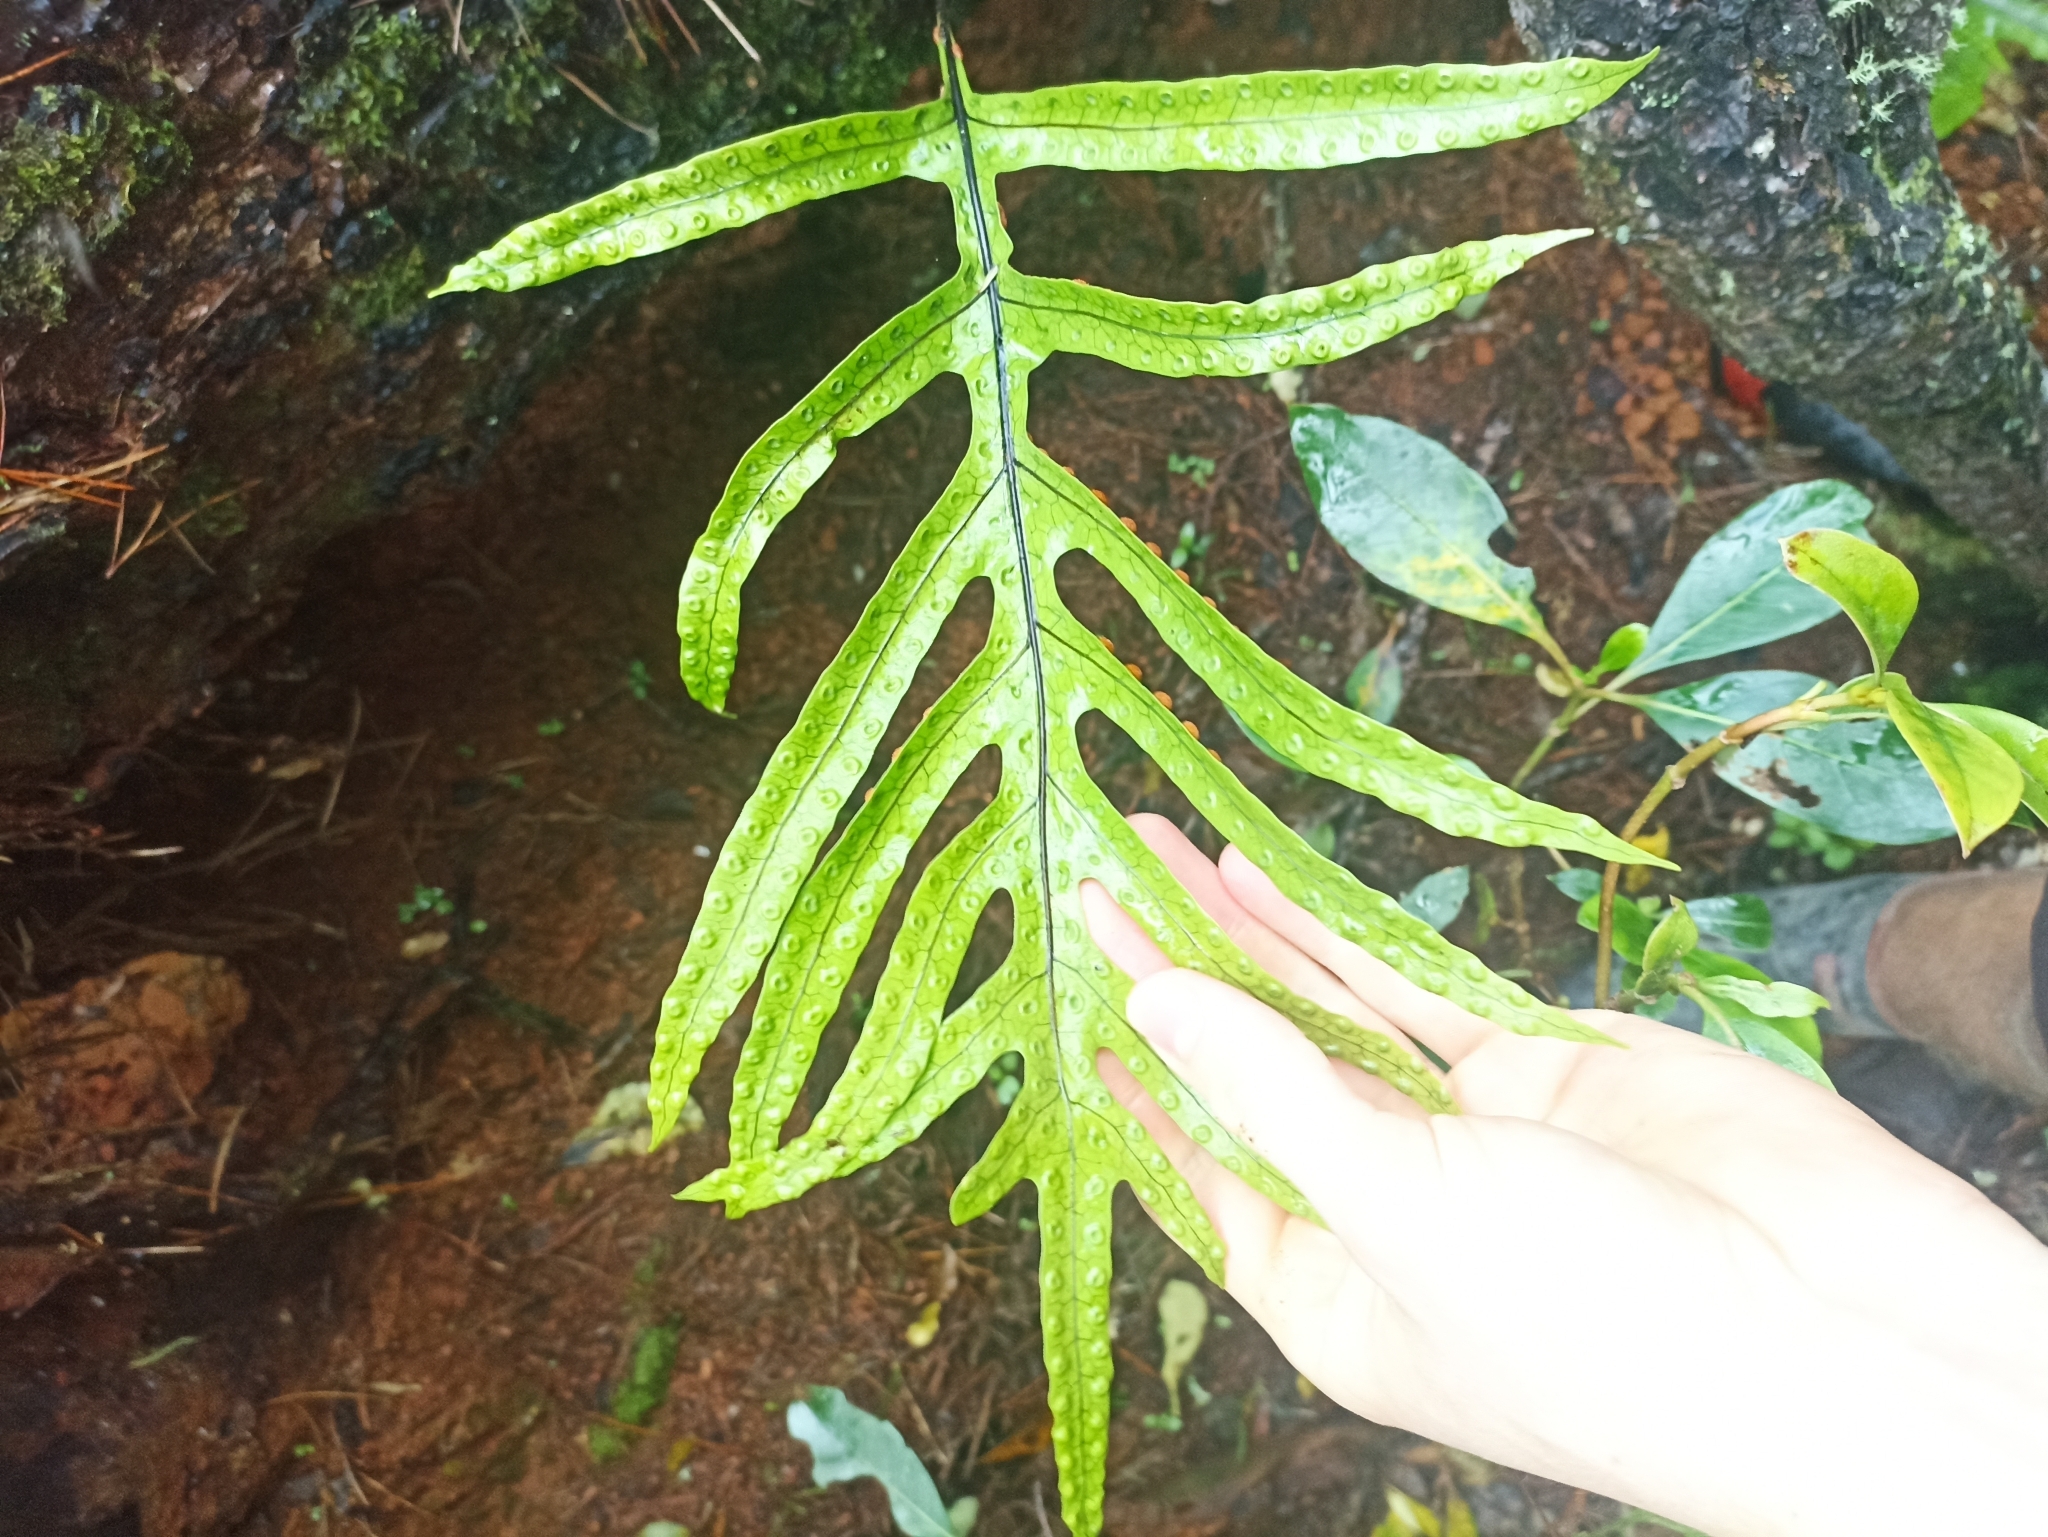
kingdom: Plantae
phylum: Tracheophyta
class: Polypodiopsida
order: Polypodiales
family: Polypodiaceae
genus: Lecanopteris
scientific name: Lecanopteris pustulata
